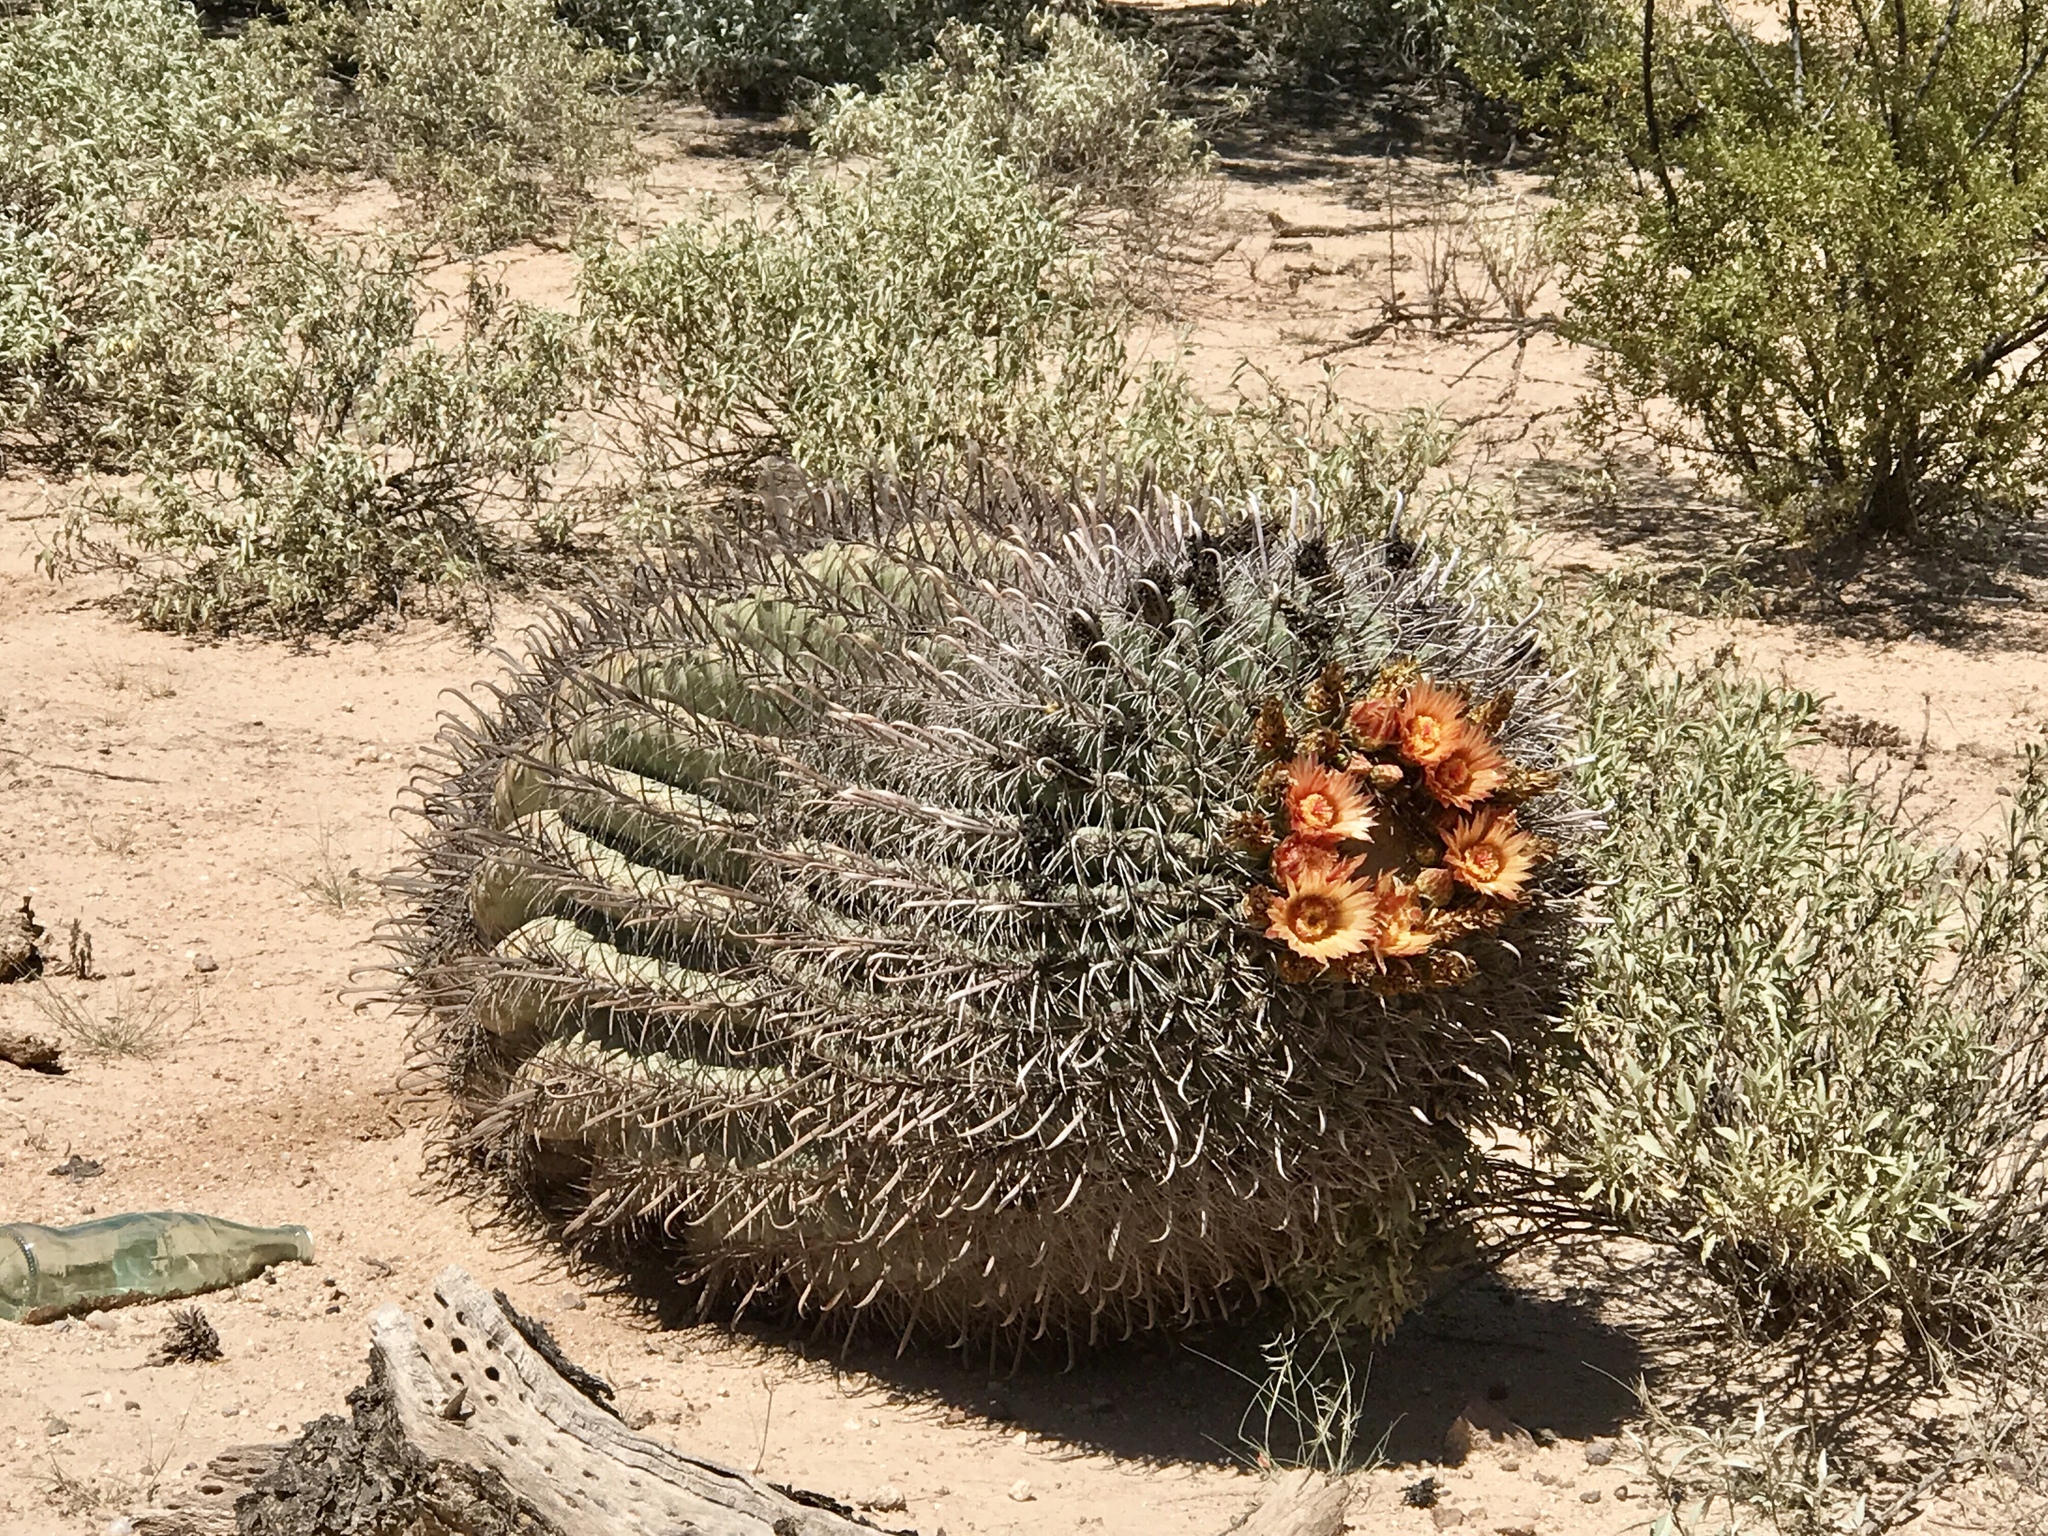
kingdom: Plantae
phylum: Tracheophyta
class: Magnoliopsida
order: Caryophyllales
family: Cactaceae
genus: Ferocactus
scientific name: Ferocactus wislizeni
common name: Candy barrel cactus
